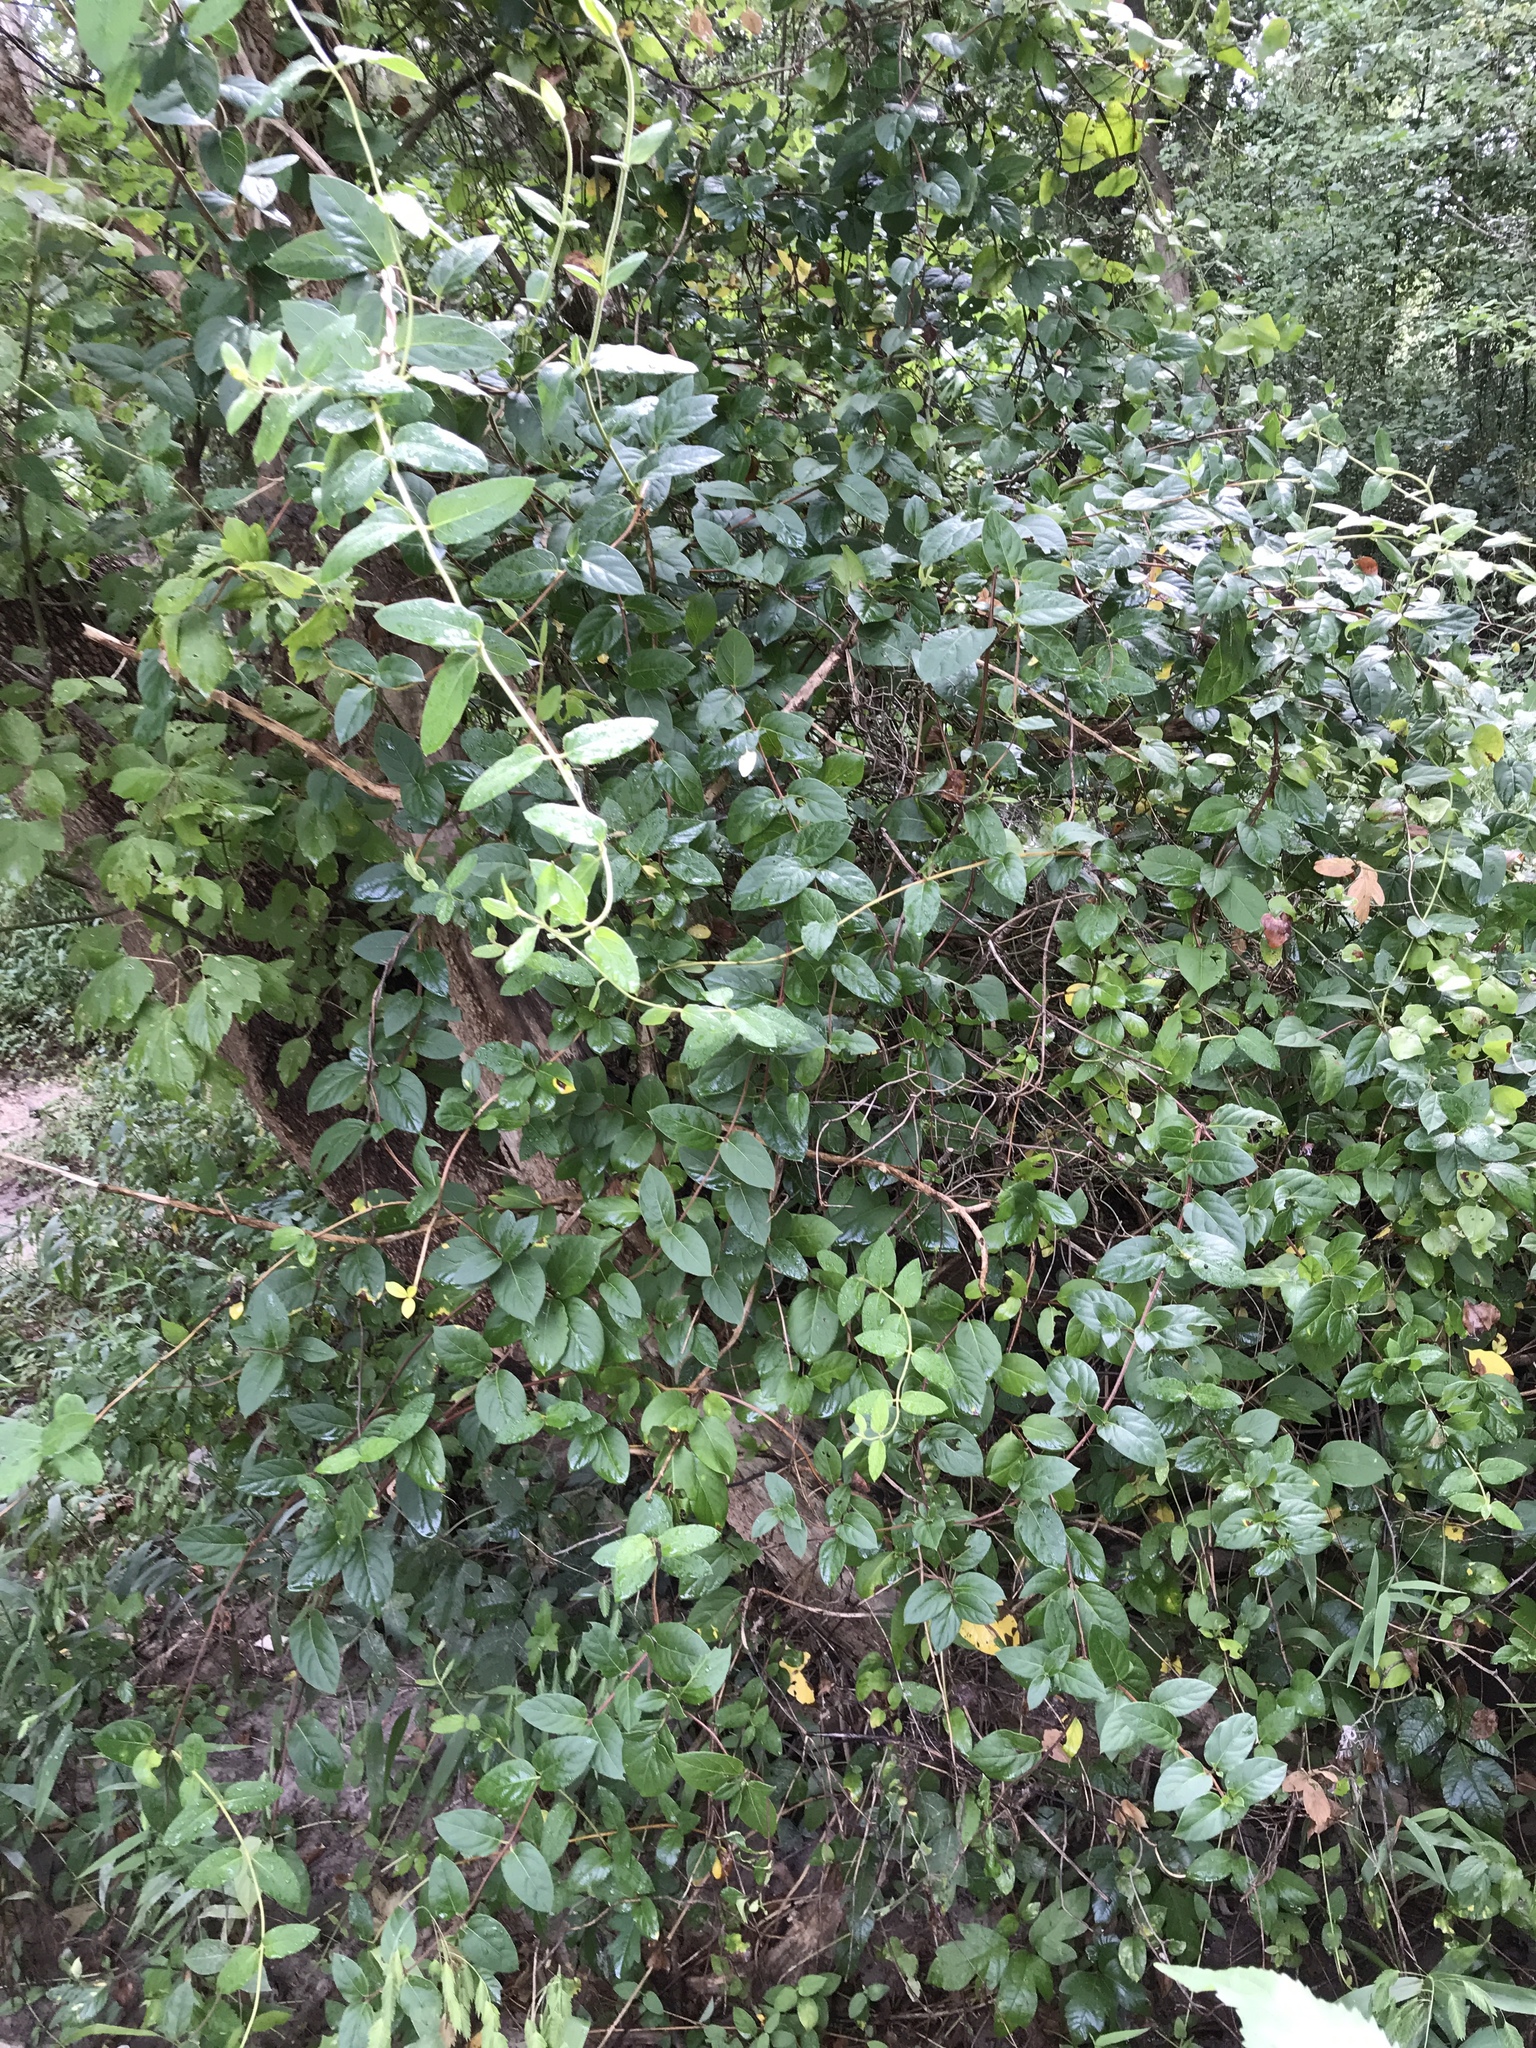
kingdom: Plantae
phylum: Tracheophyta
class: Magnoliopsida
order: Dipsacales
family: Caprifoliaceae
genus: Lonicera
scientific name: Lonicera japonica
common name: Japanese honeysuckle
